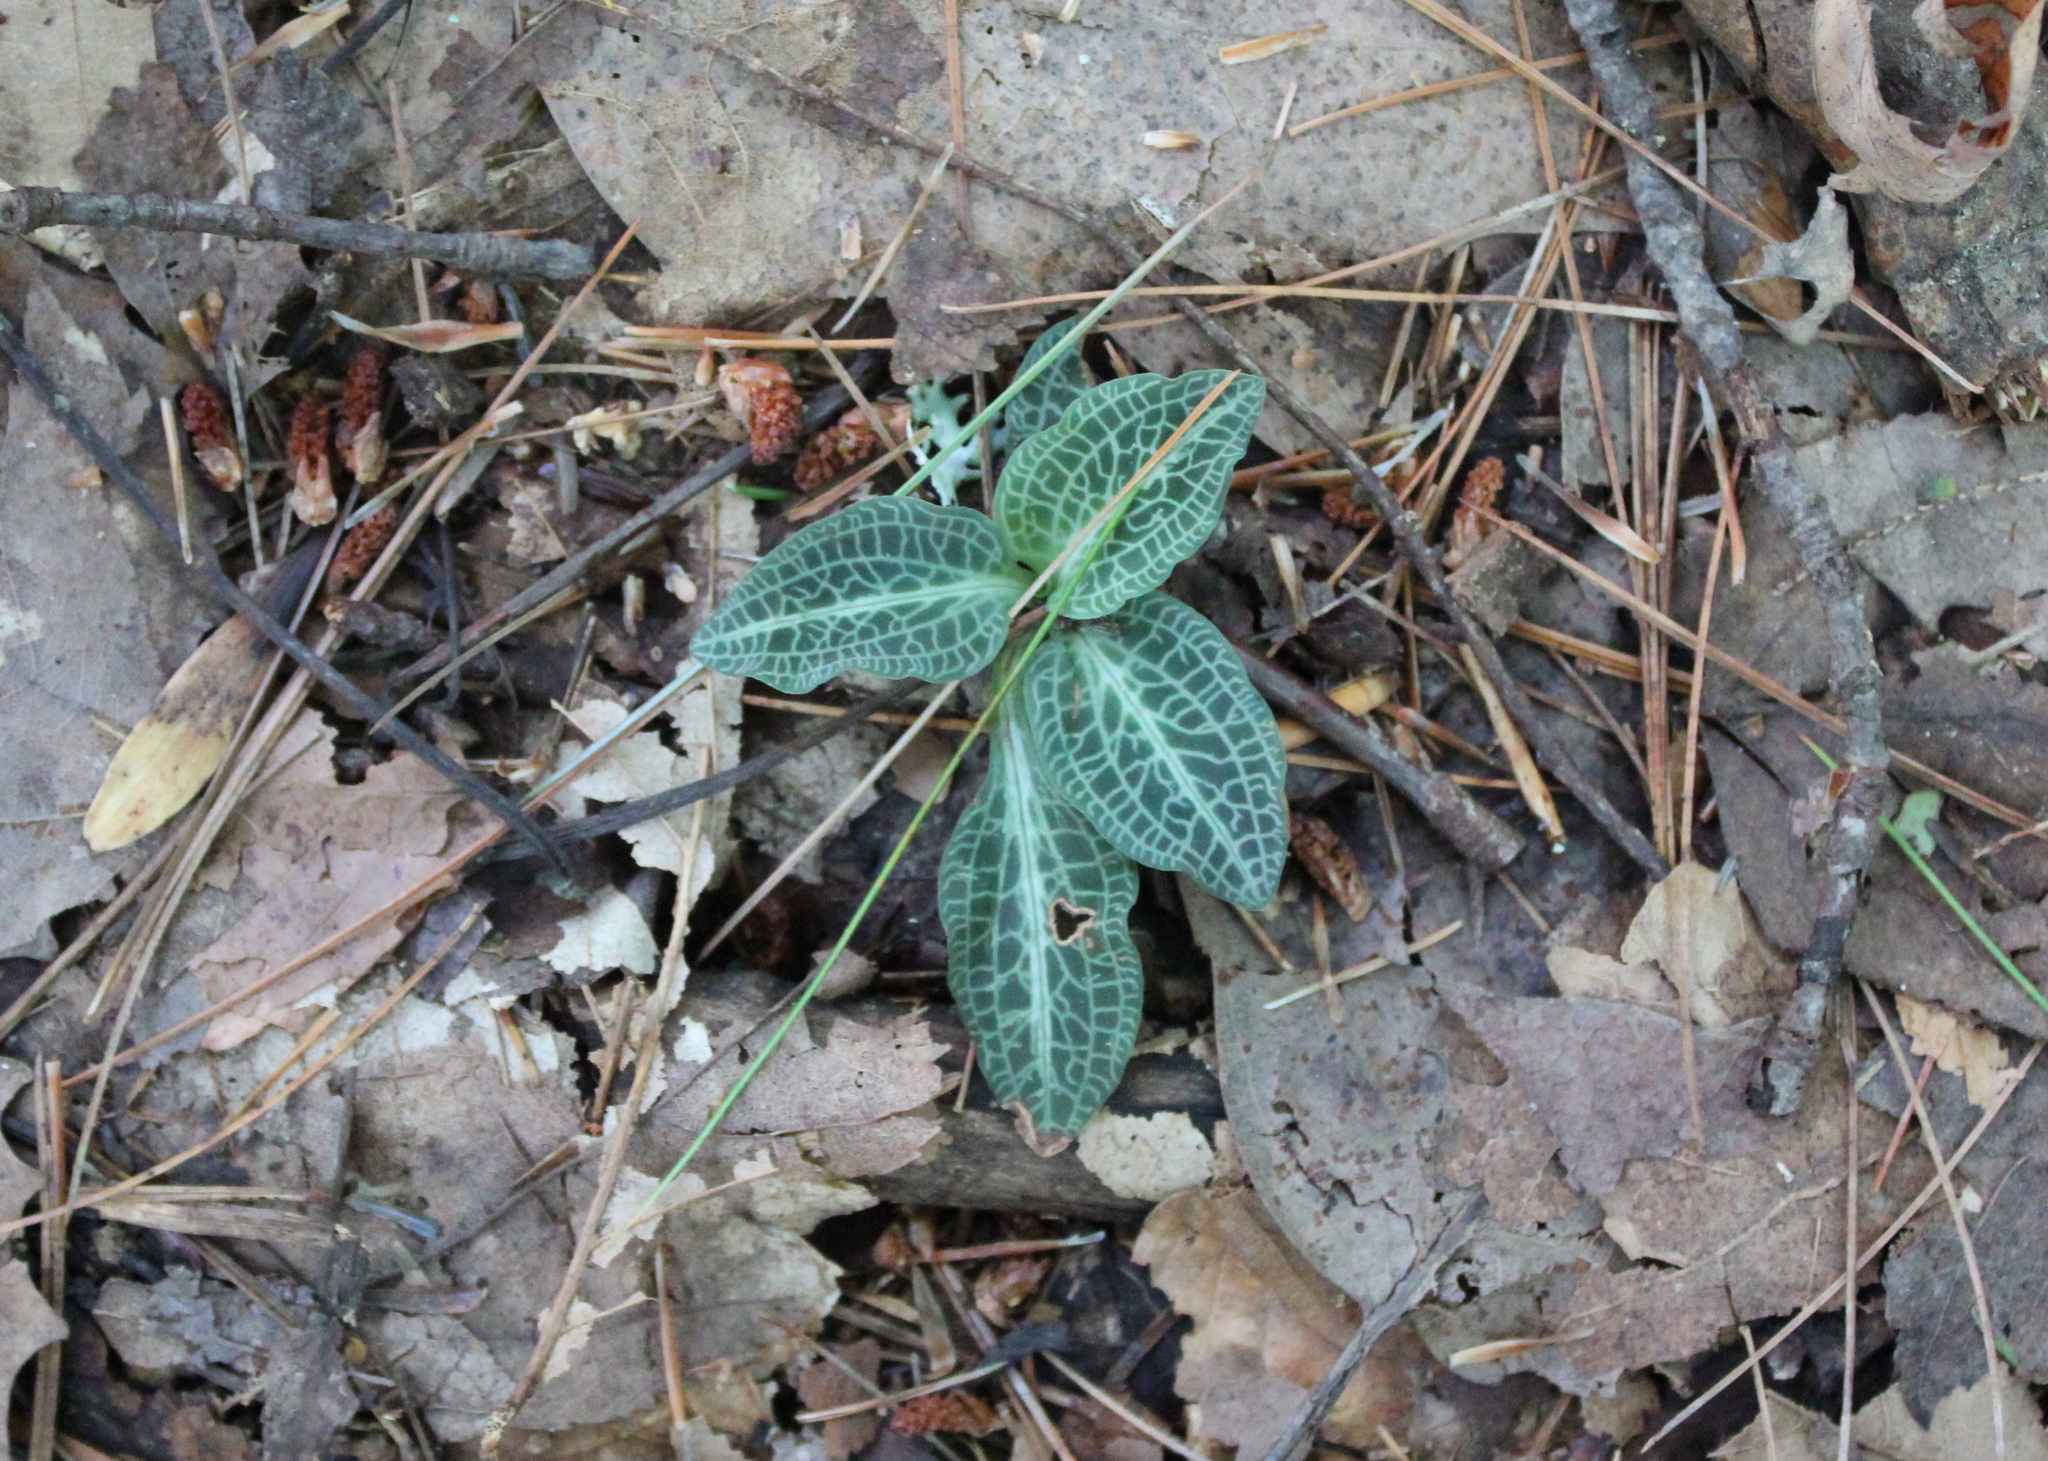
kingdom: Plantae
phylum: Tracheophyta
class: Liliopsida
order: Asparagales
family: Orchidaceae
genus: Goodyera
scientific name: Goodyera pubescens
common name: Downy rattlesnake-plantain
